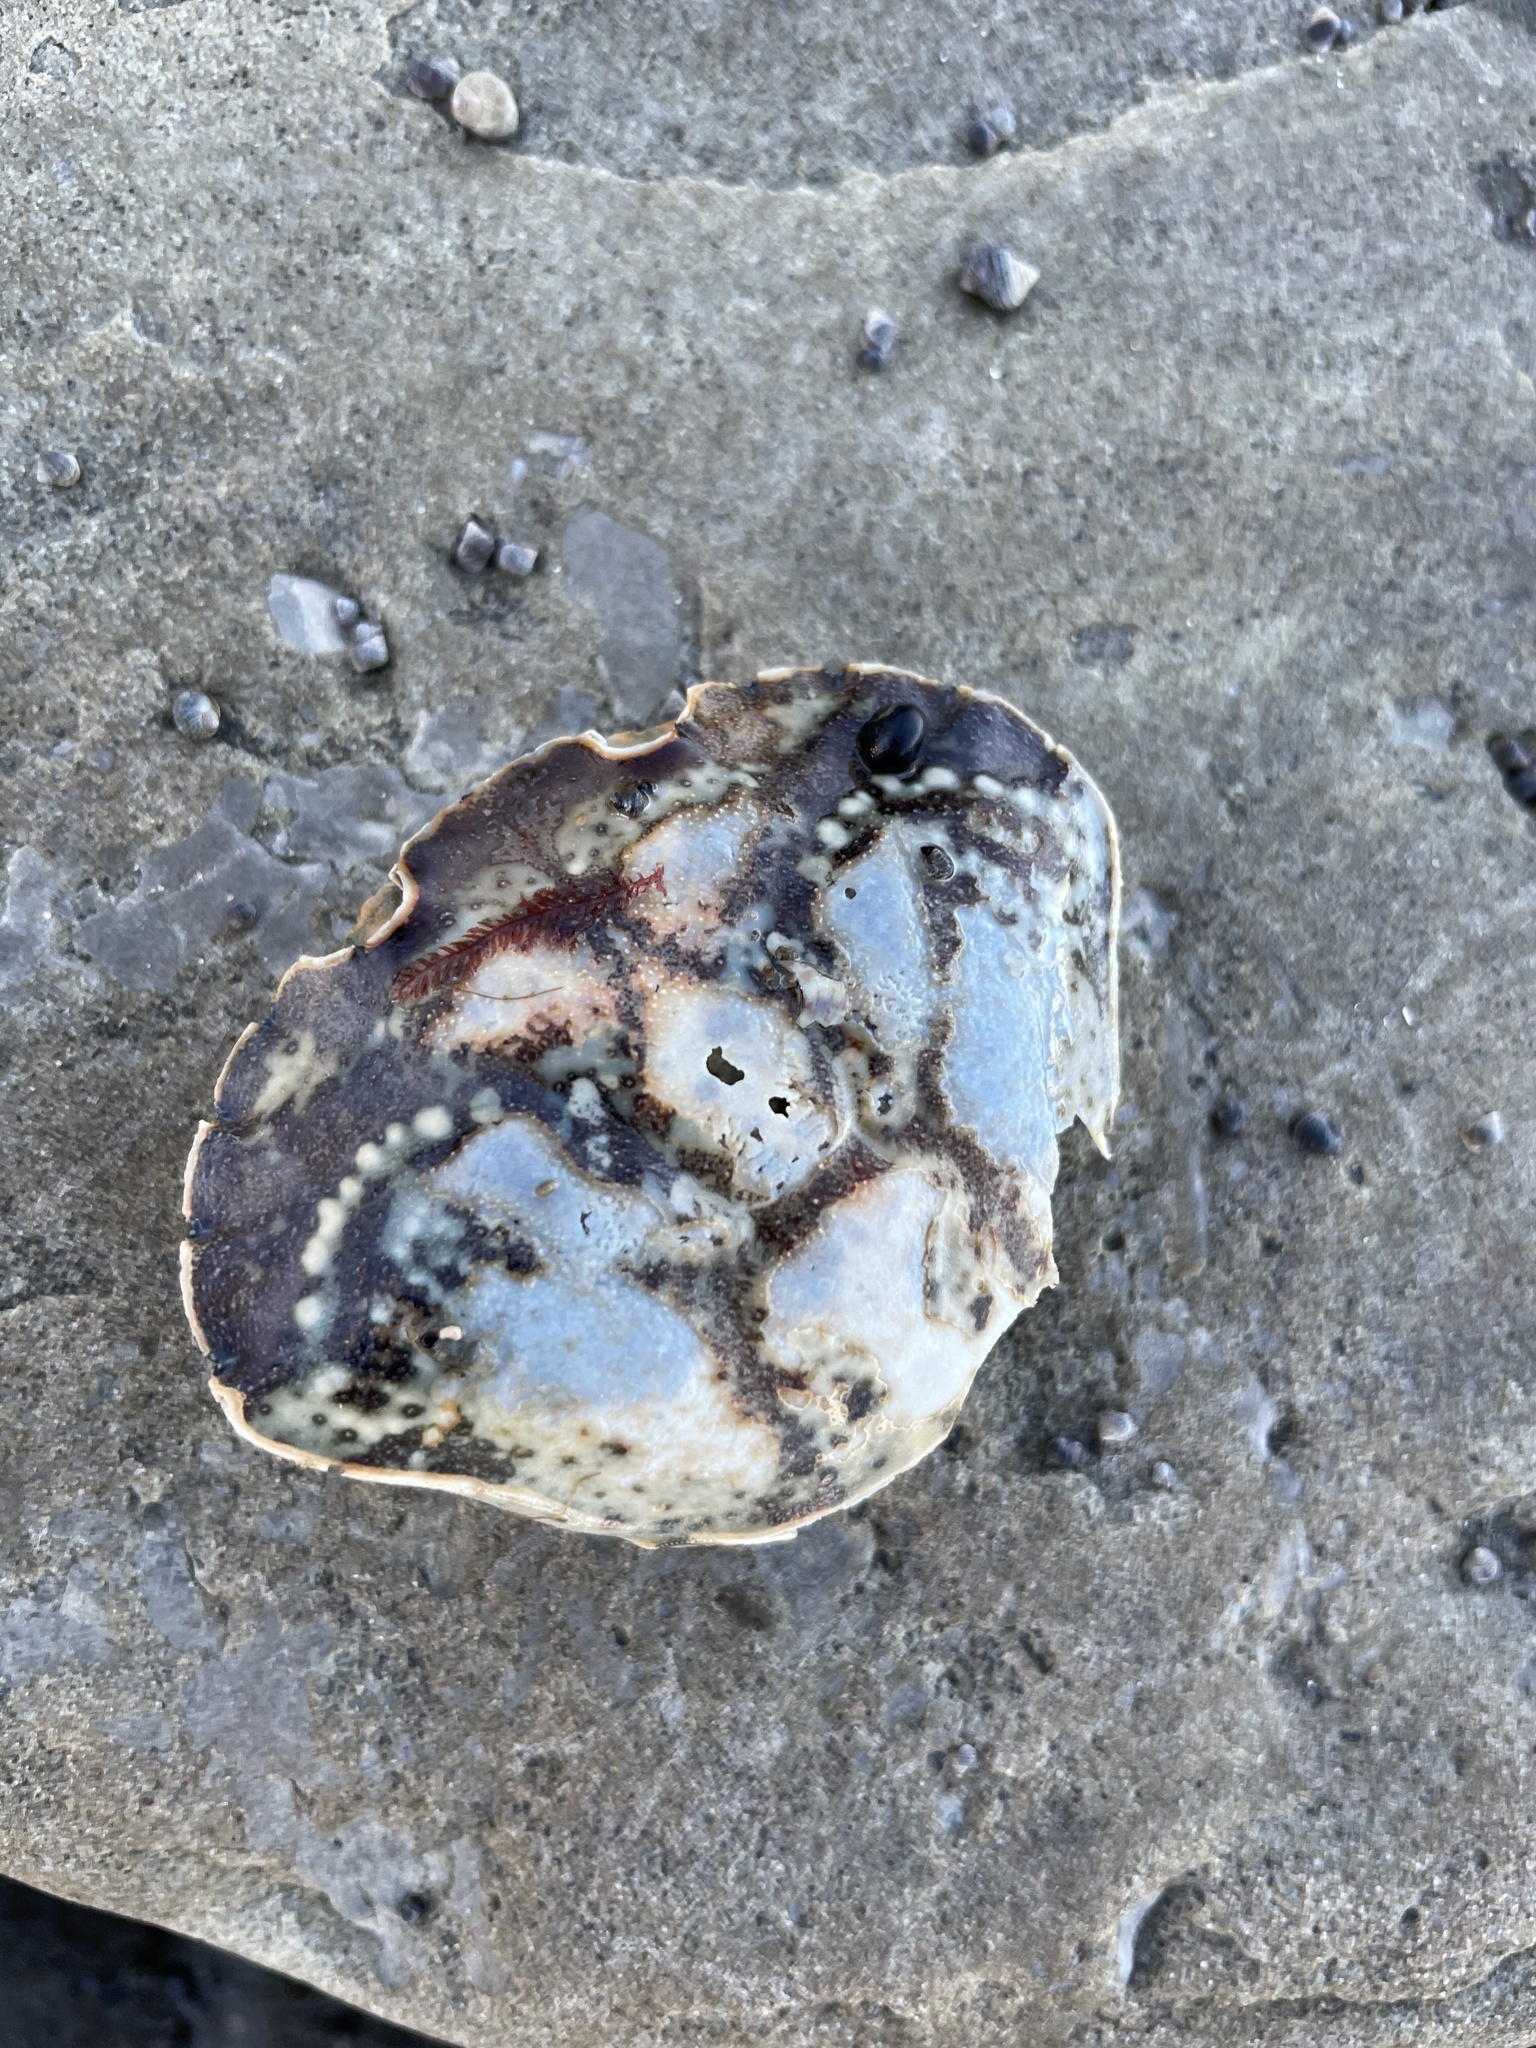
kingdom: Animalia
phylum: Arthropoda
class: Malacostraca
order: Decapoda
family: Carcinidae
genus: Carcinus
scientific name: Carcinus maenas
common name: European green crab
